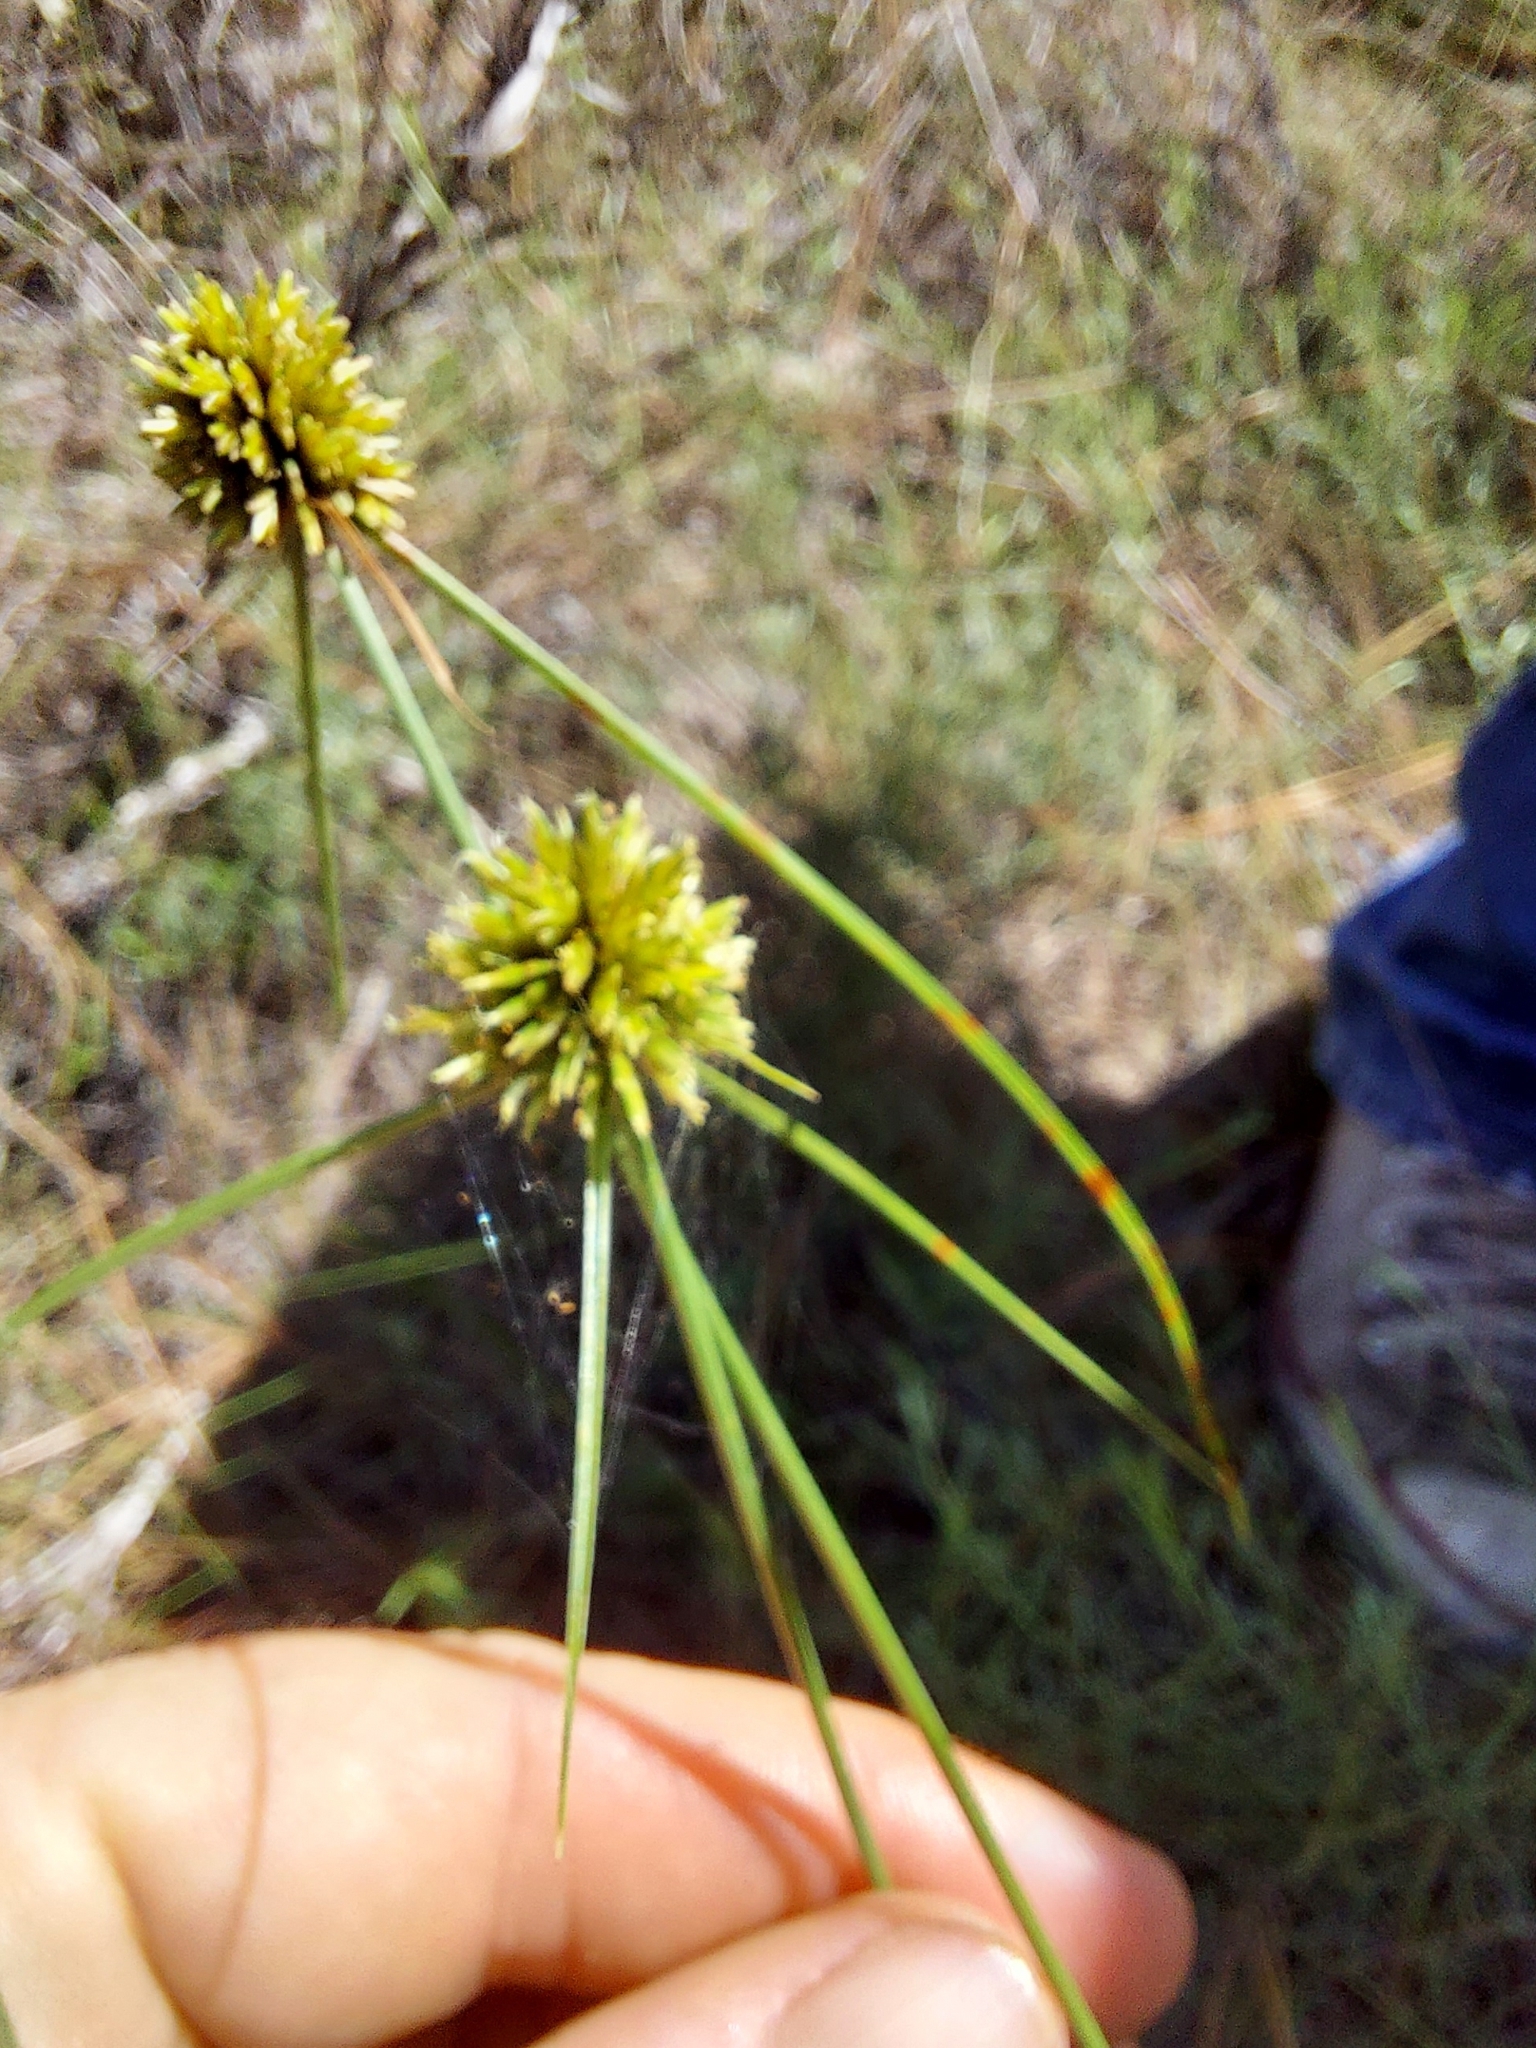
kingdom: Plantae
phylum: Tracheophyta
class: Liliopsida
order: Poales
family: Cyperaceae
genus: Cyperus
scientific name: Cyperus filiculmis
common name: Slender sand sedge
